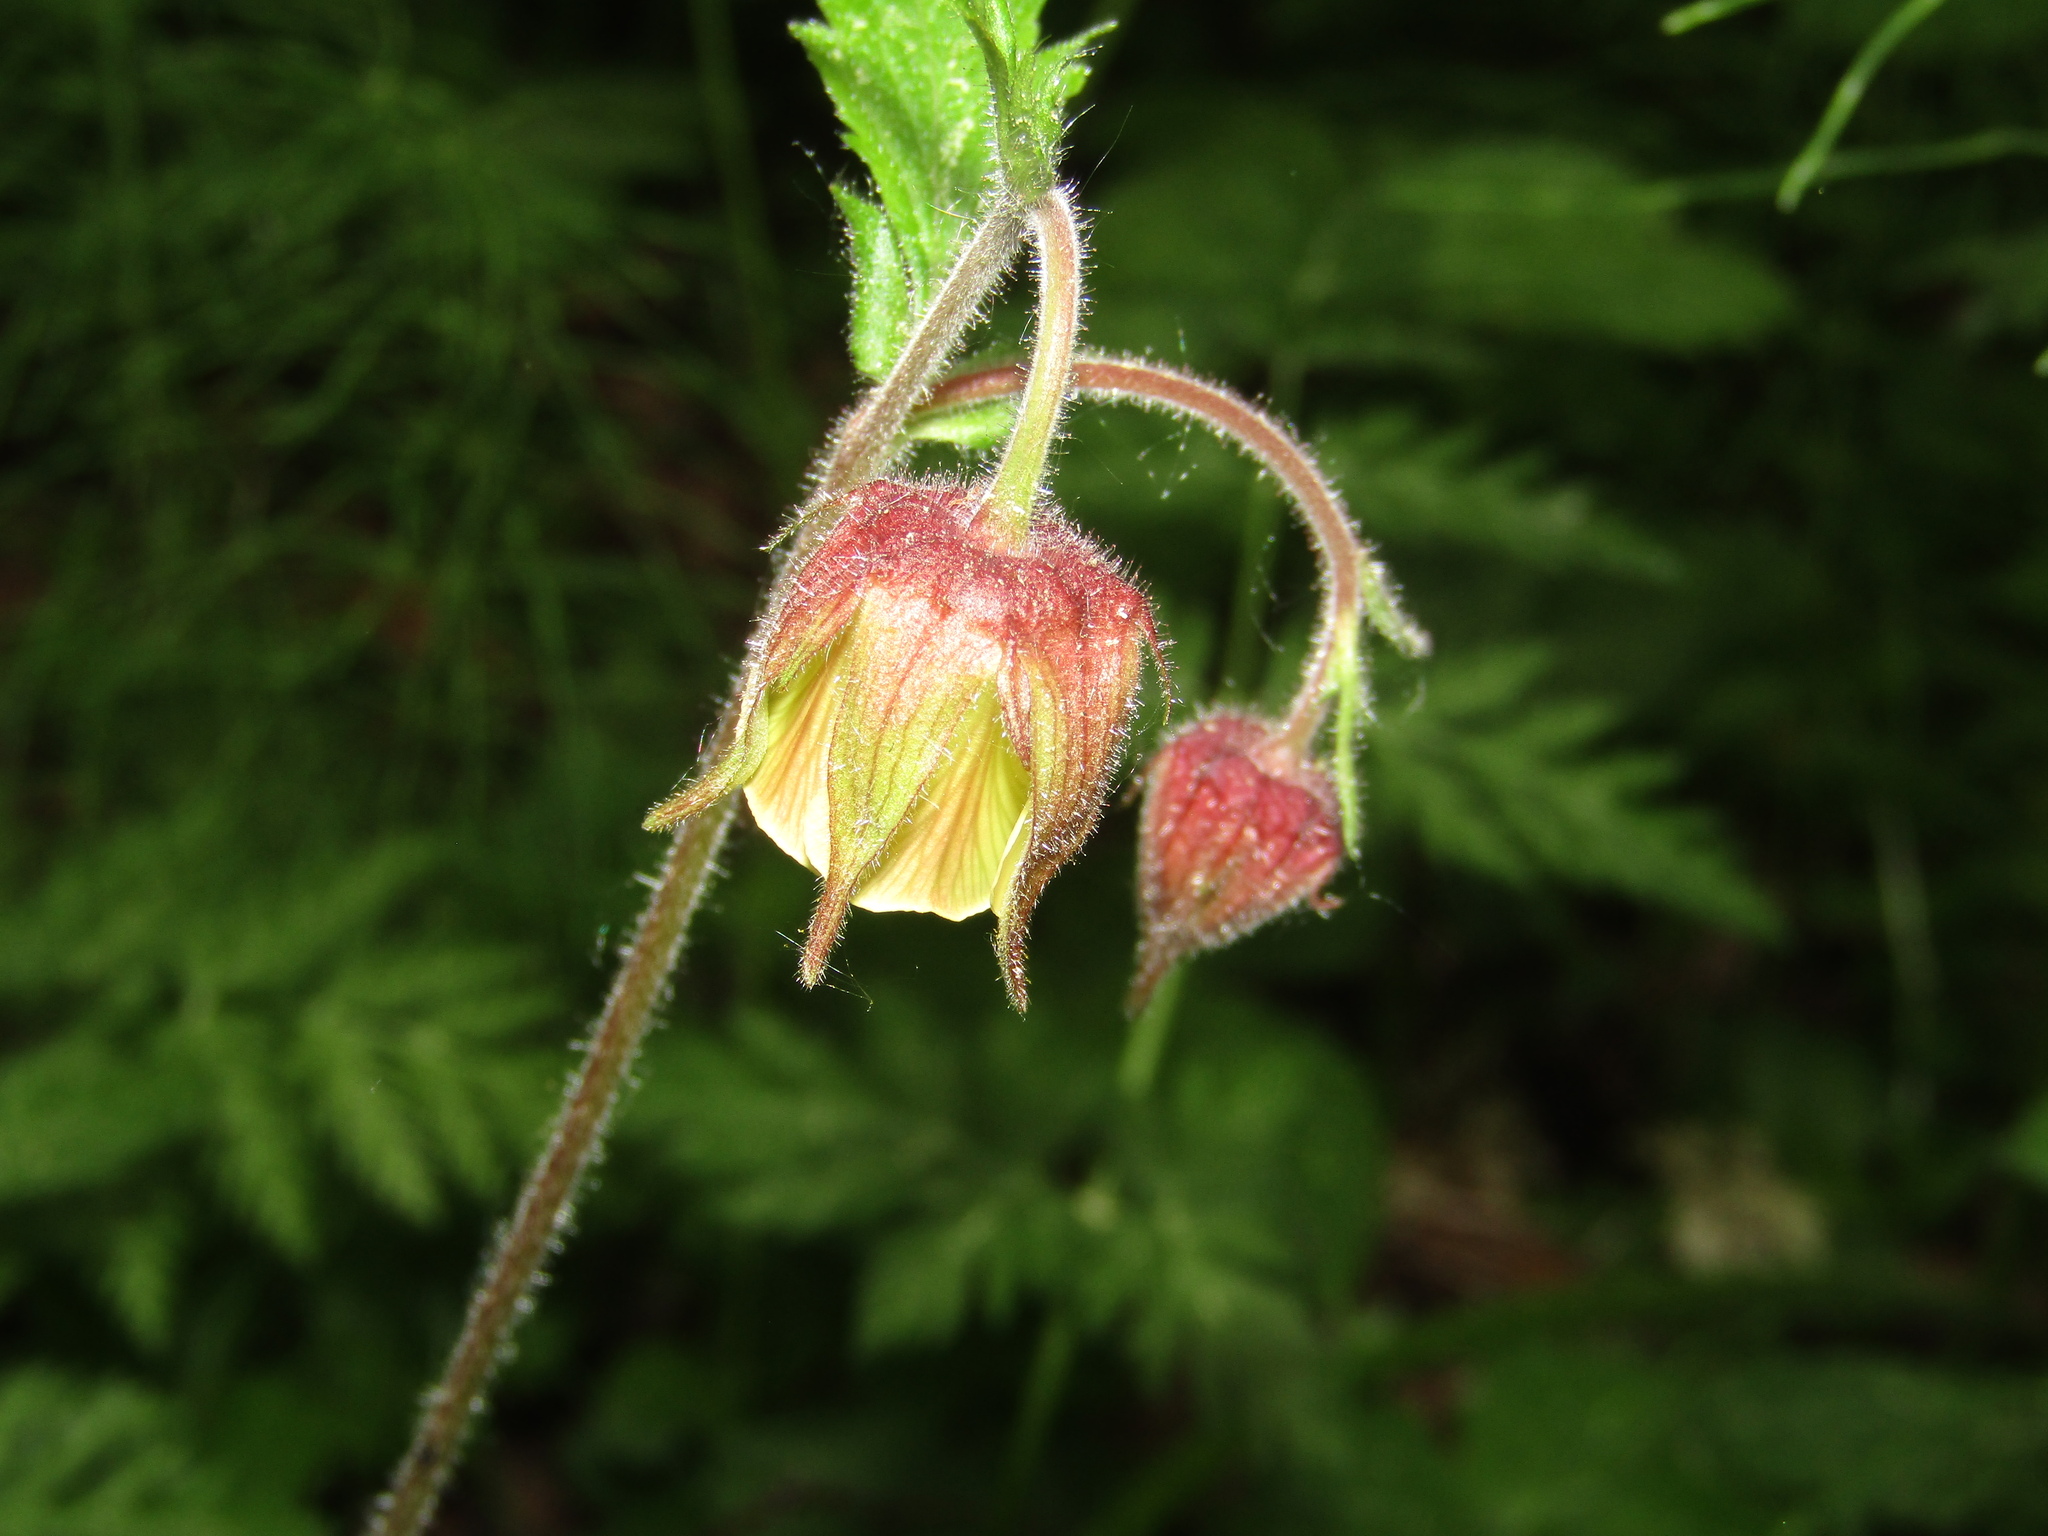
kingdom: Plantae
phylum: Tracheophyta
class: Magnoliopsida
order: Rosales
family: Rosaceae
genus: Geum
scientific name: Geum rivale
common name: Water avens
